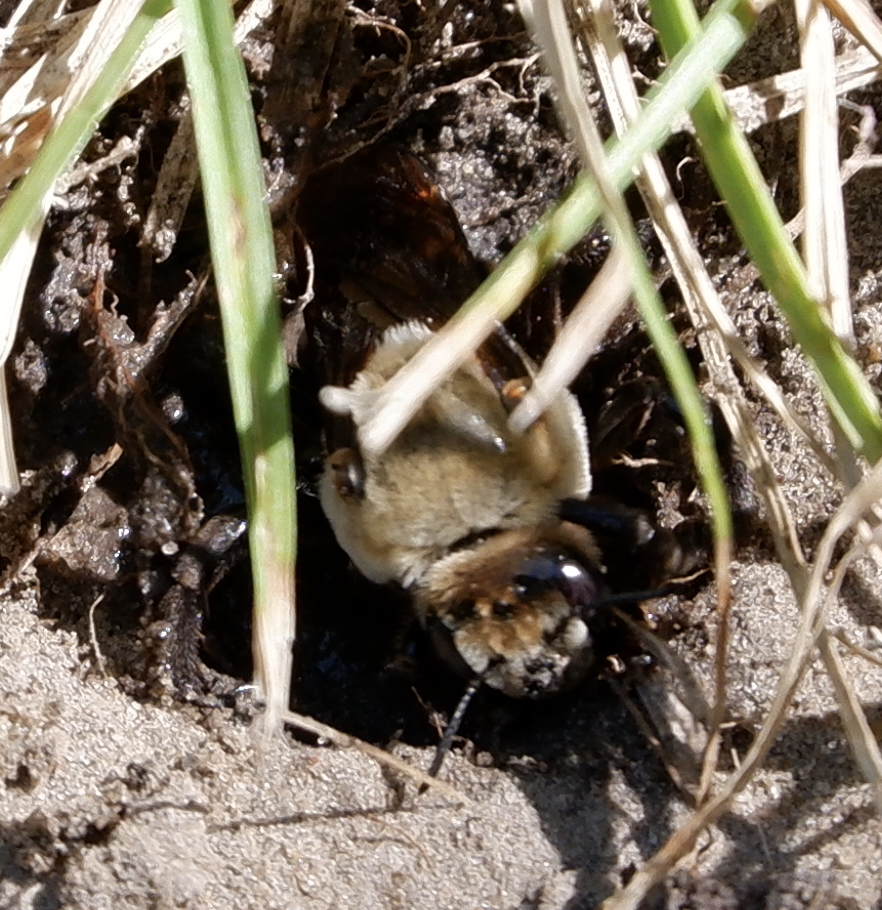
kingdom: Animalia
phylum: Arthropoda
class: Insecta
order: Hymenoptera
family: Apidae
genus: Ptilothrix
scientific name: Ptilothrix bombiformis
